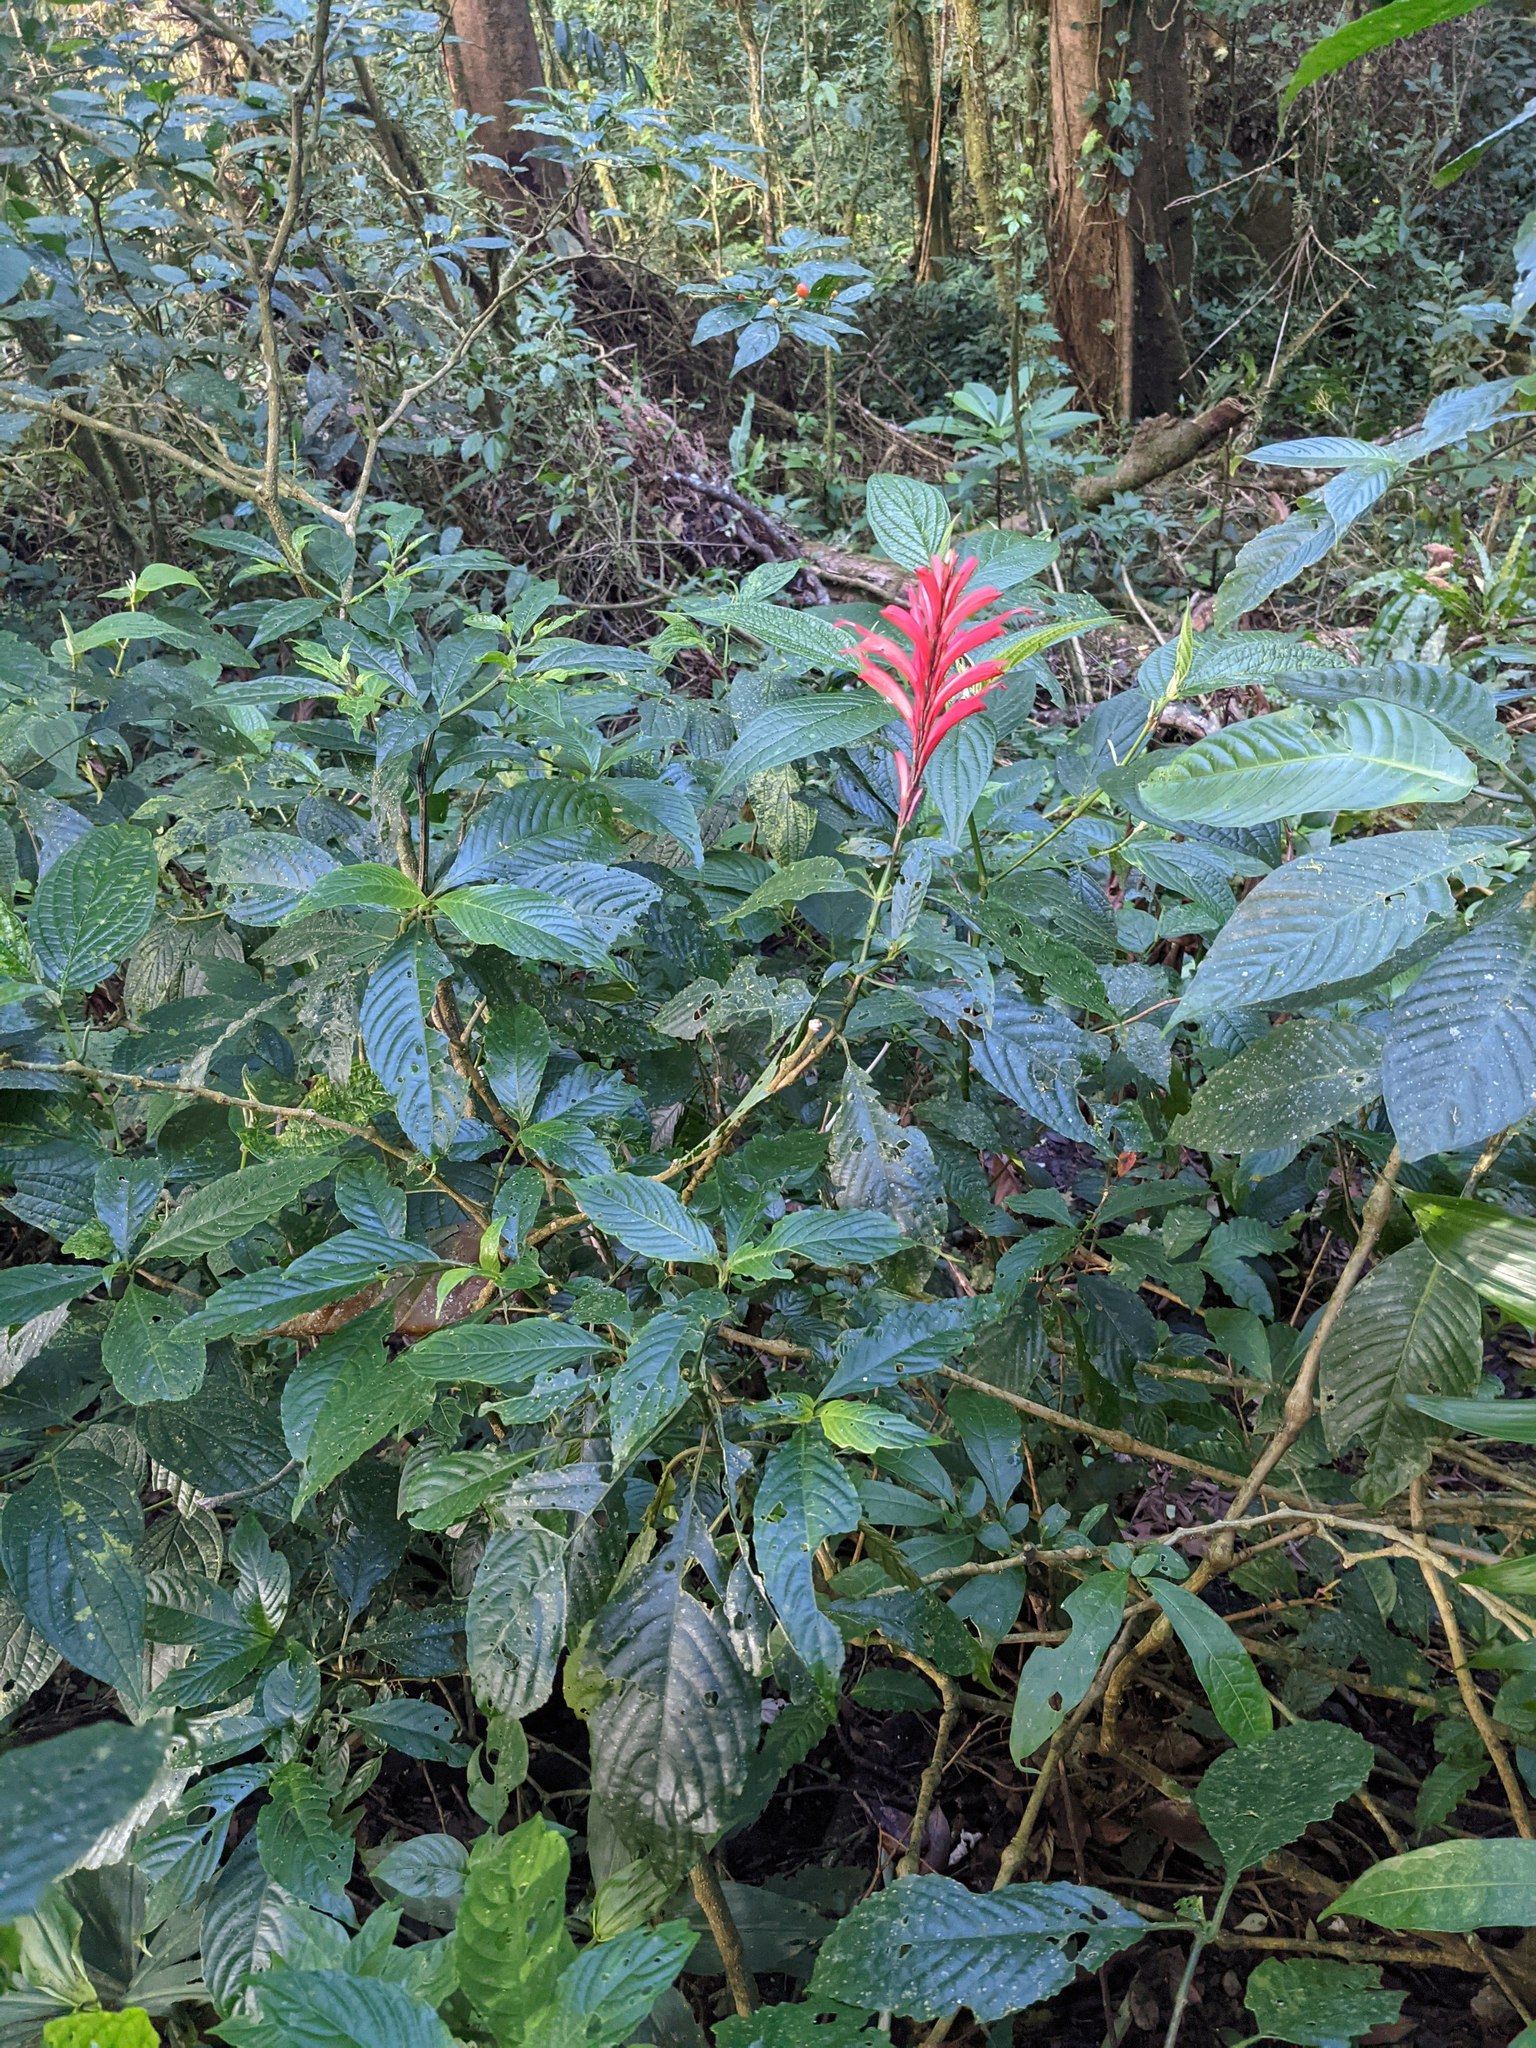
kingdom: Plantae
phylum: Tracheophyta
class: Magnoliopsida
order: Lamiales
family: Acanthaceae
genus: Stenostephanus
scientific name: Stenostephanus leiorhachis
